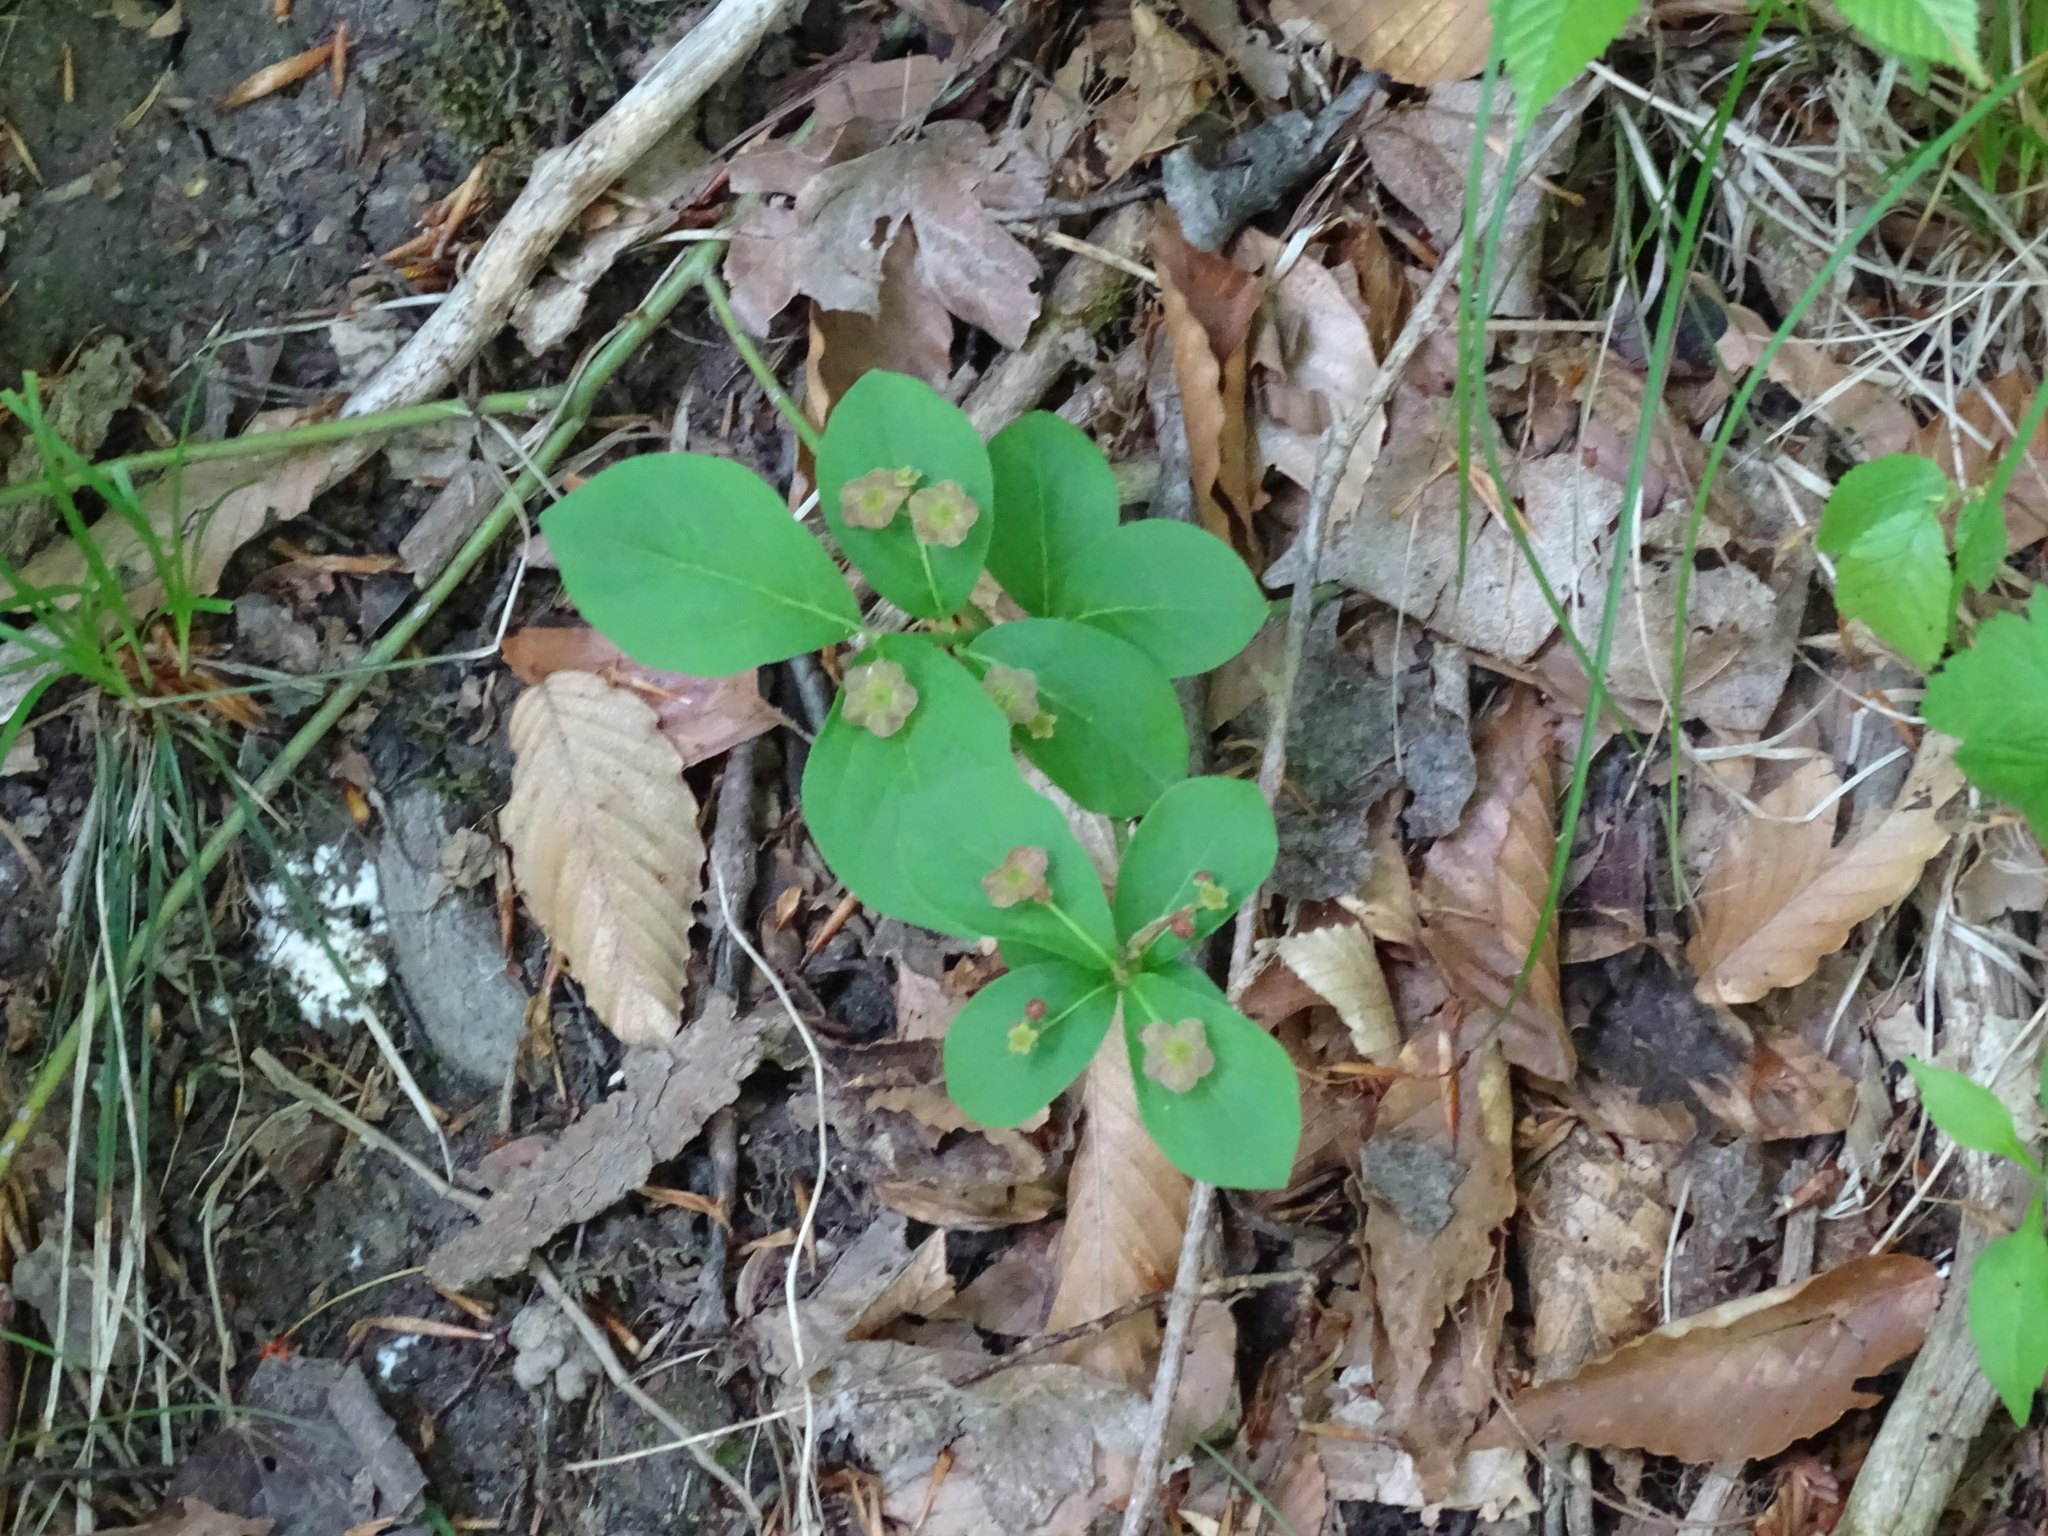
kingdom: Plantae
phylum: Tracheophyta
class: Magnoliopsida
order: Celastrales
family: Celastraceae
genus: Euonymus
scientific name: Euonymus obovatus
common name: Running strawberry-bush
